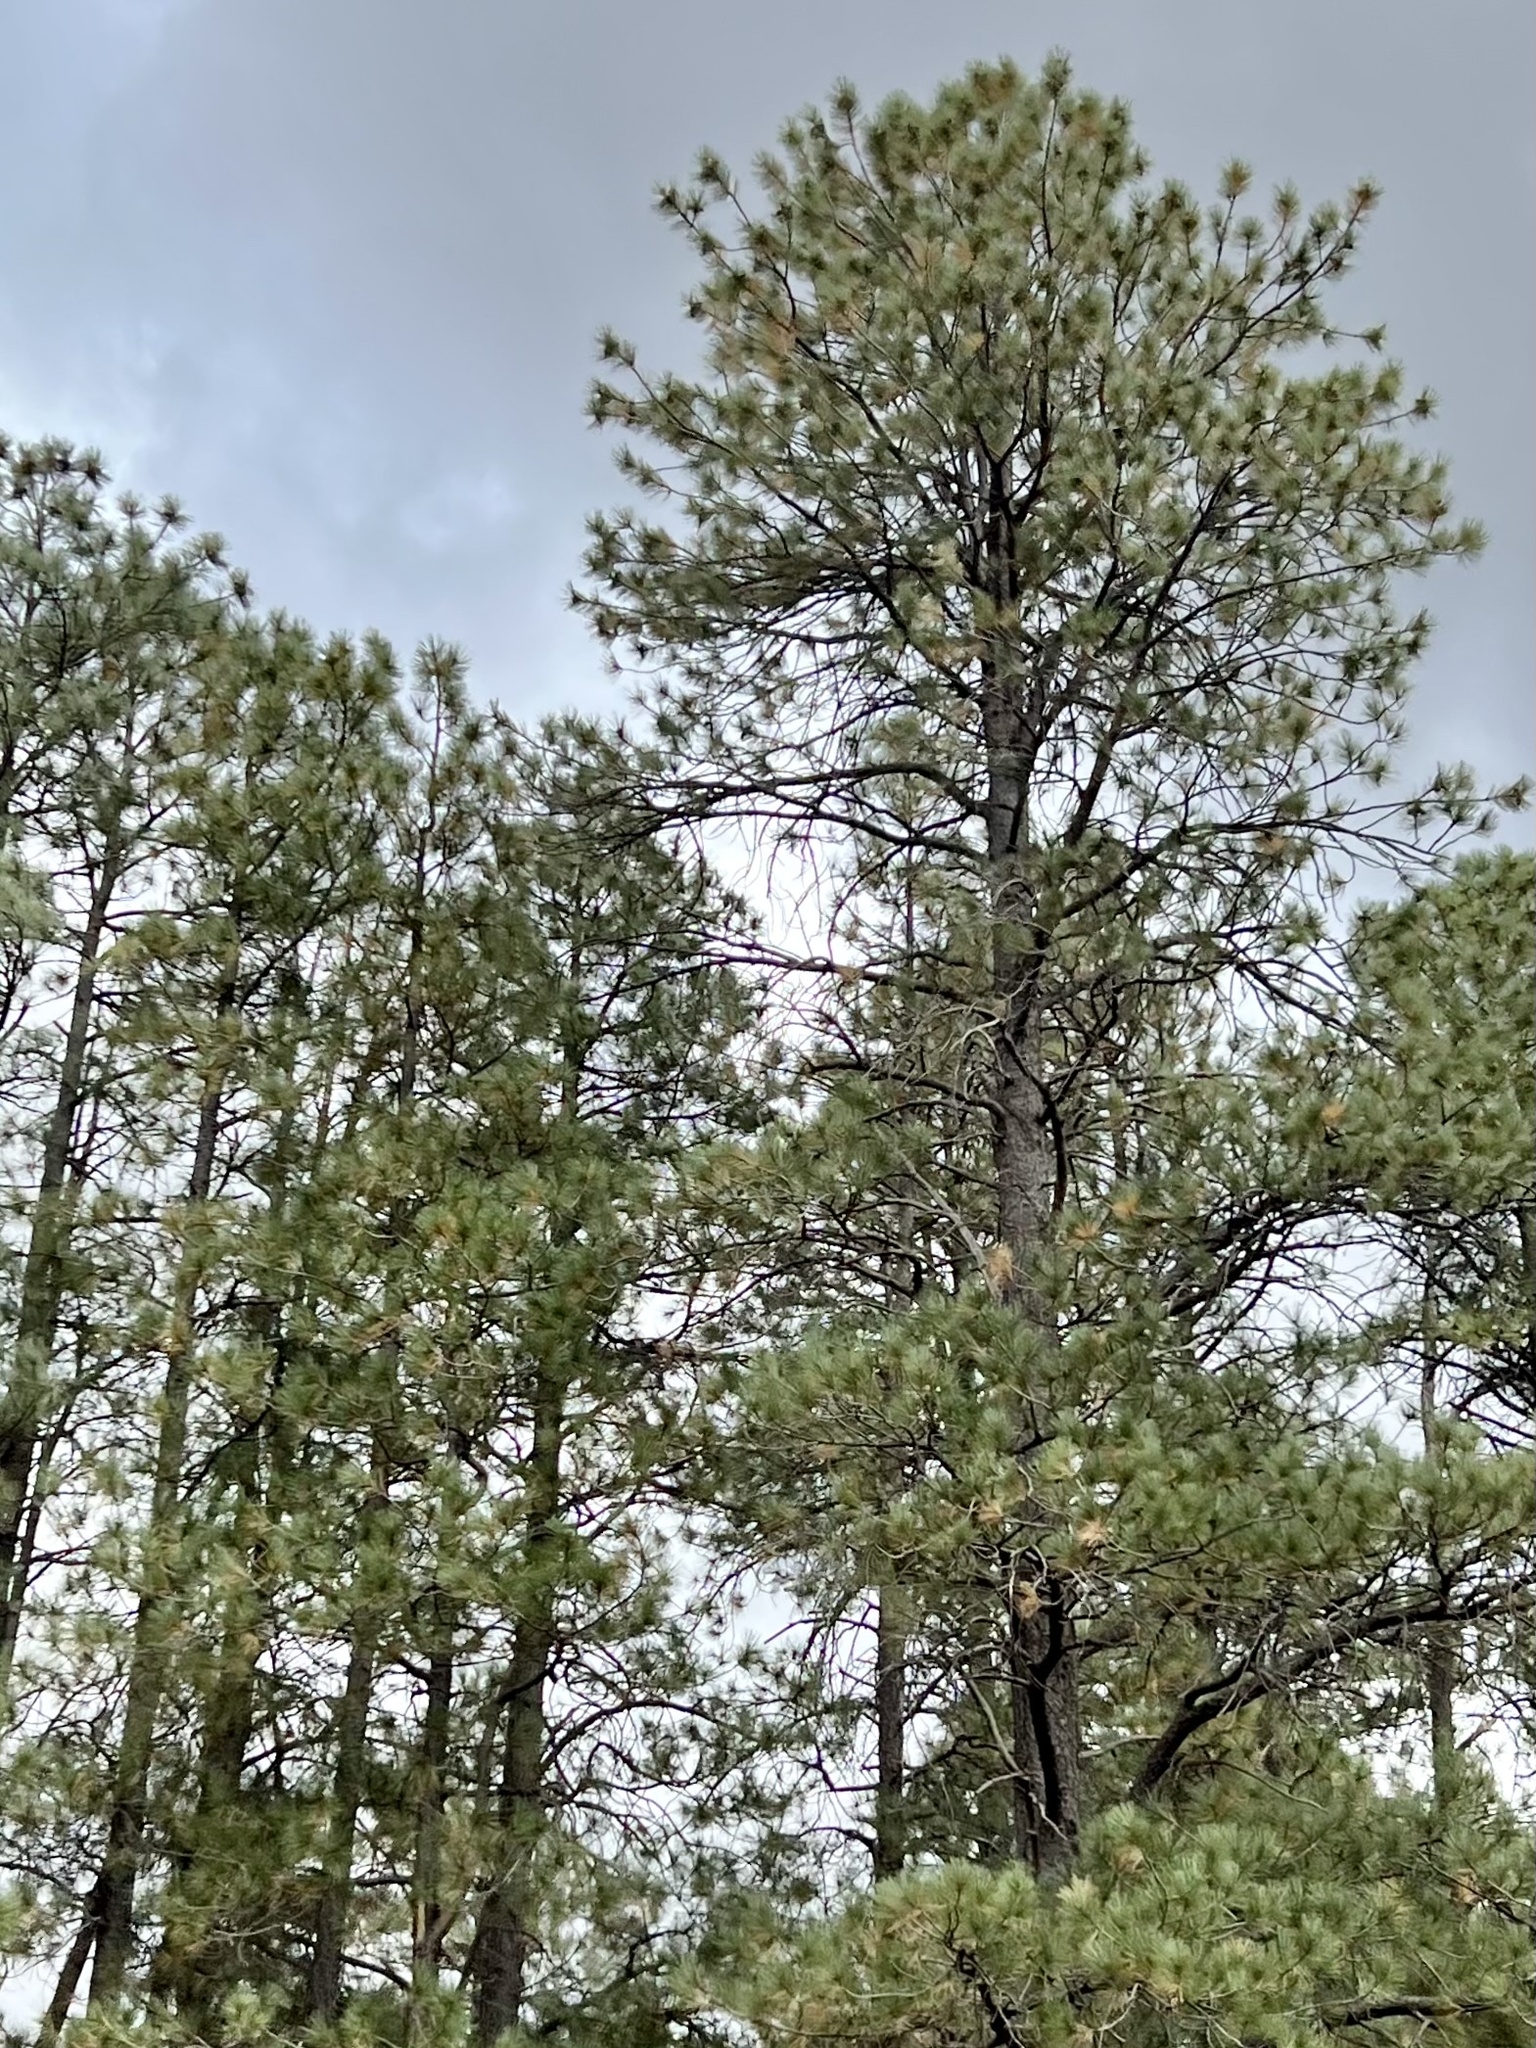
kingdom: Plantae
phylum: Tracheophyta
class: Pinopsida
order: Pinales
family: Pinaceae
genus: Pinus
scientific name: Pinus ponderosa
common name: Western yellow-pine
